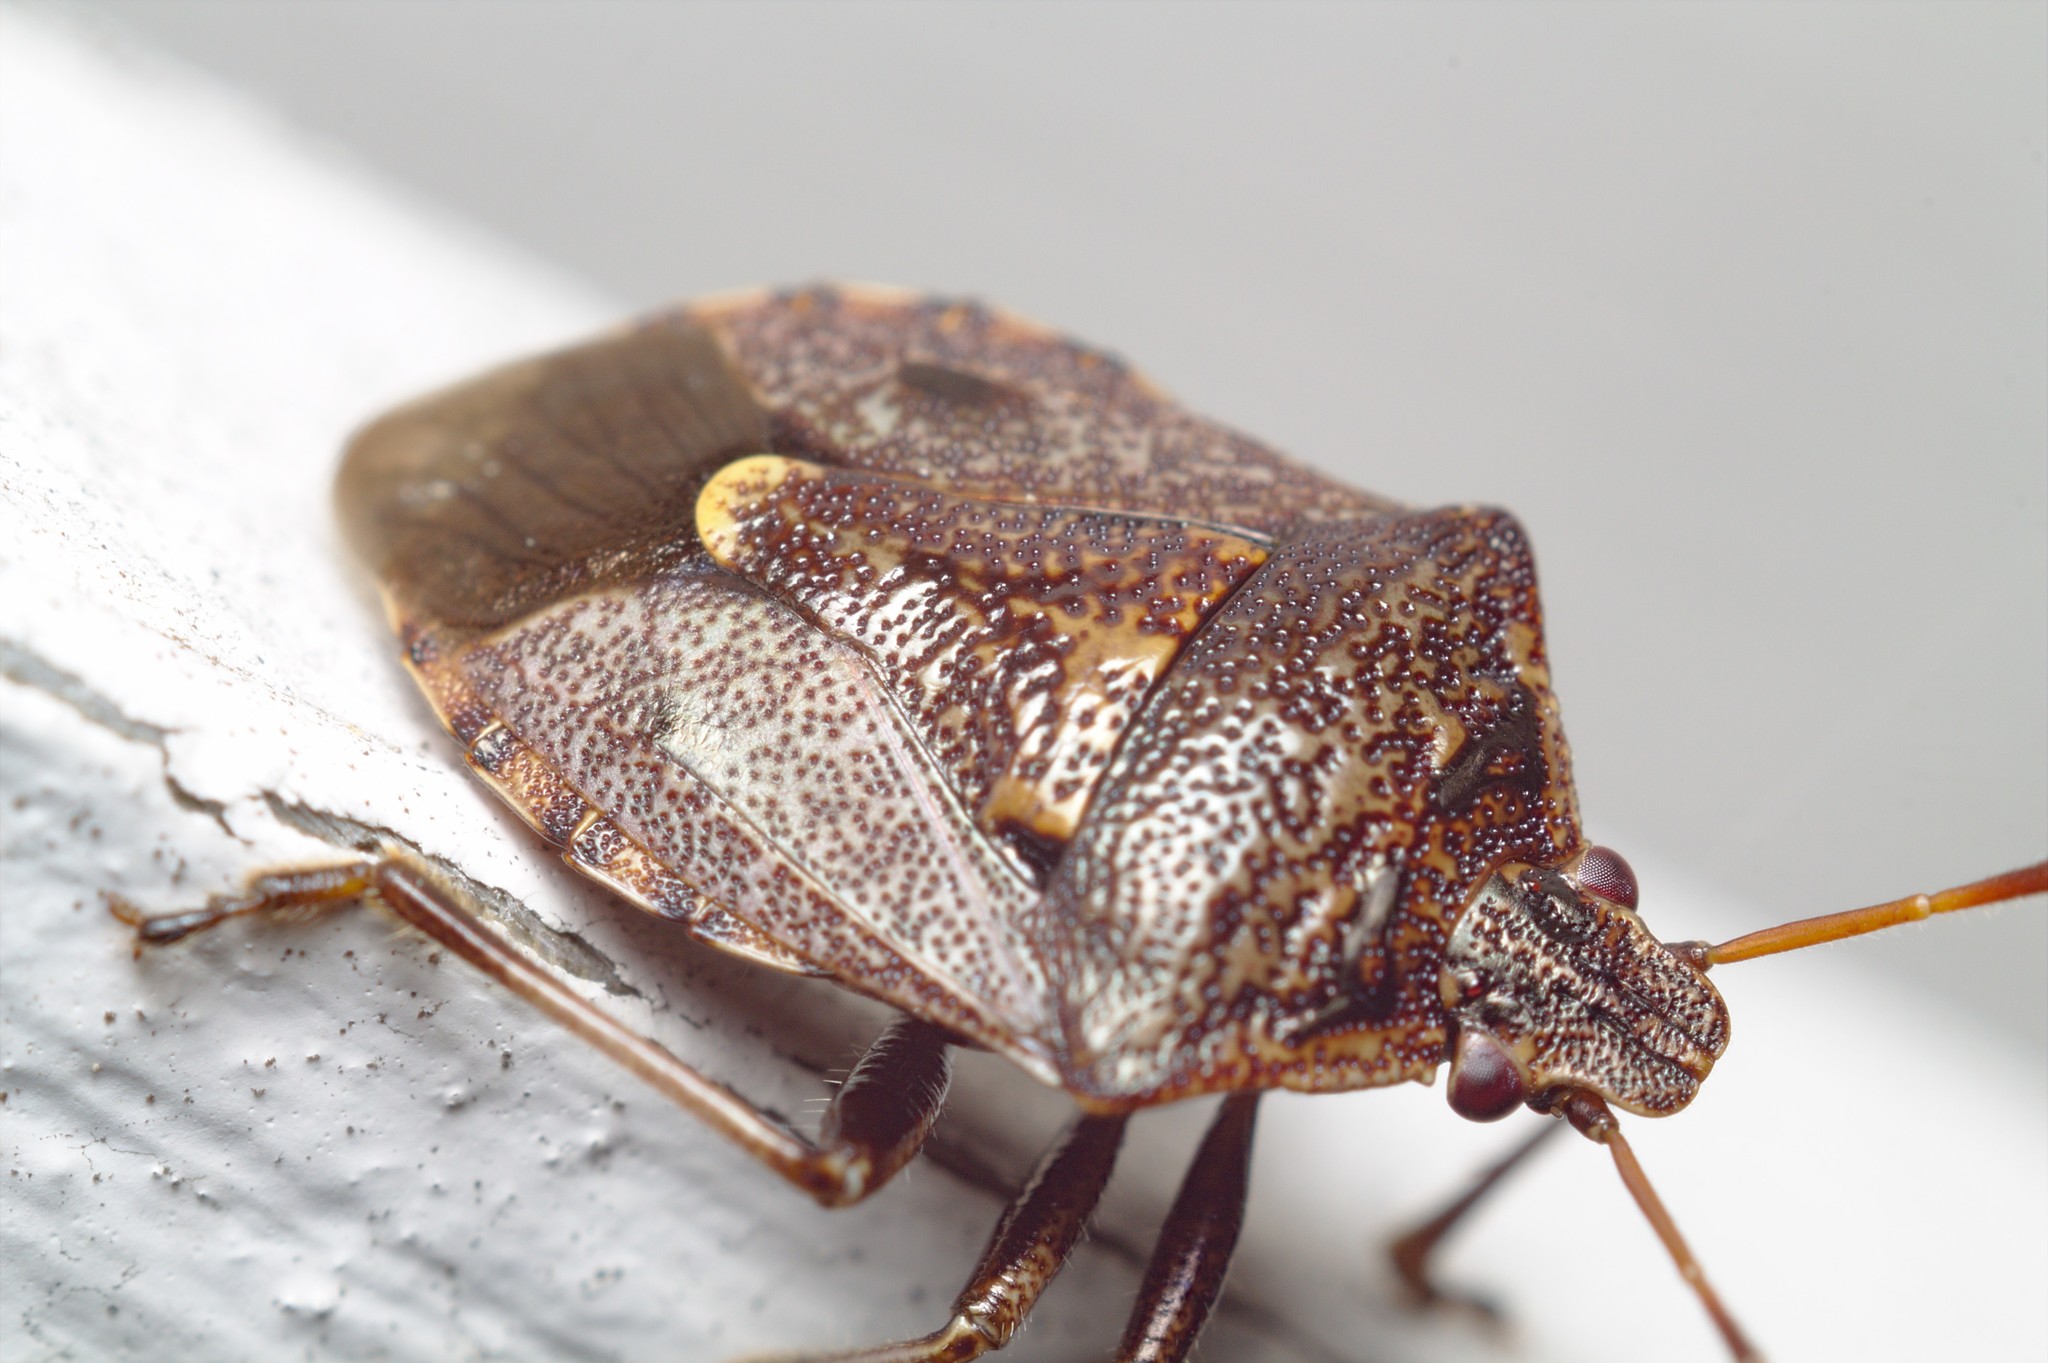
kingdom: Animalia
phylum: Arthropoda
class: Insecta
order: Hemiptera
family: Pentatomidae
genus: Cermatulus
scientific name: Cermatulus nasalis
